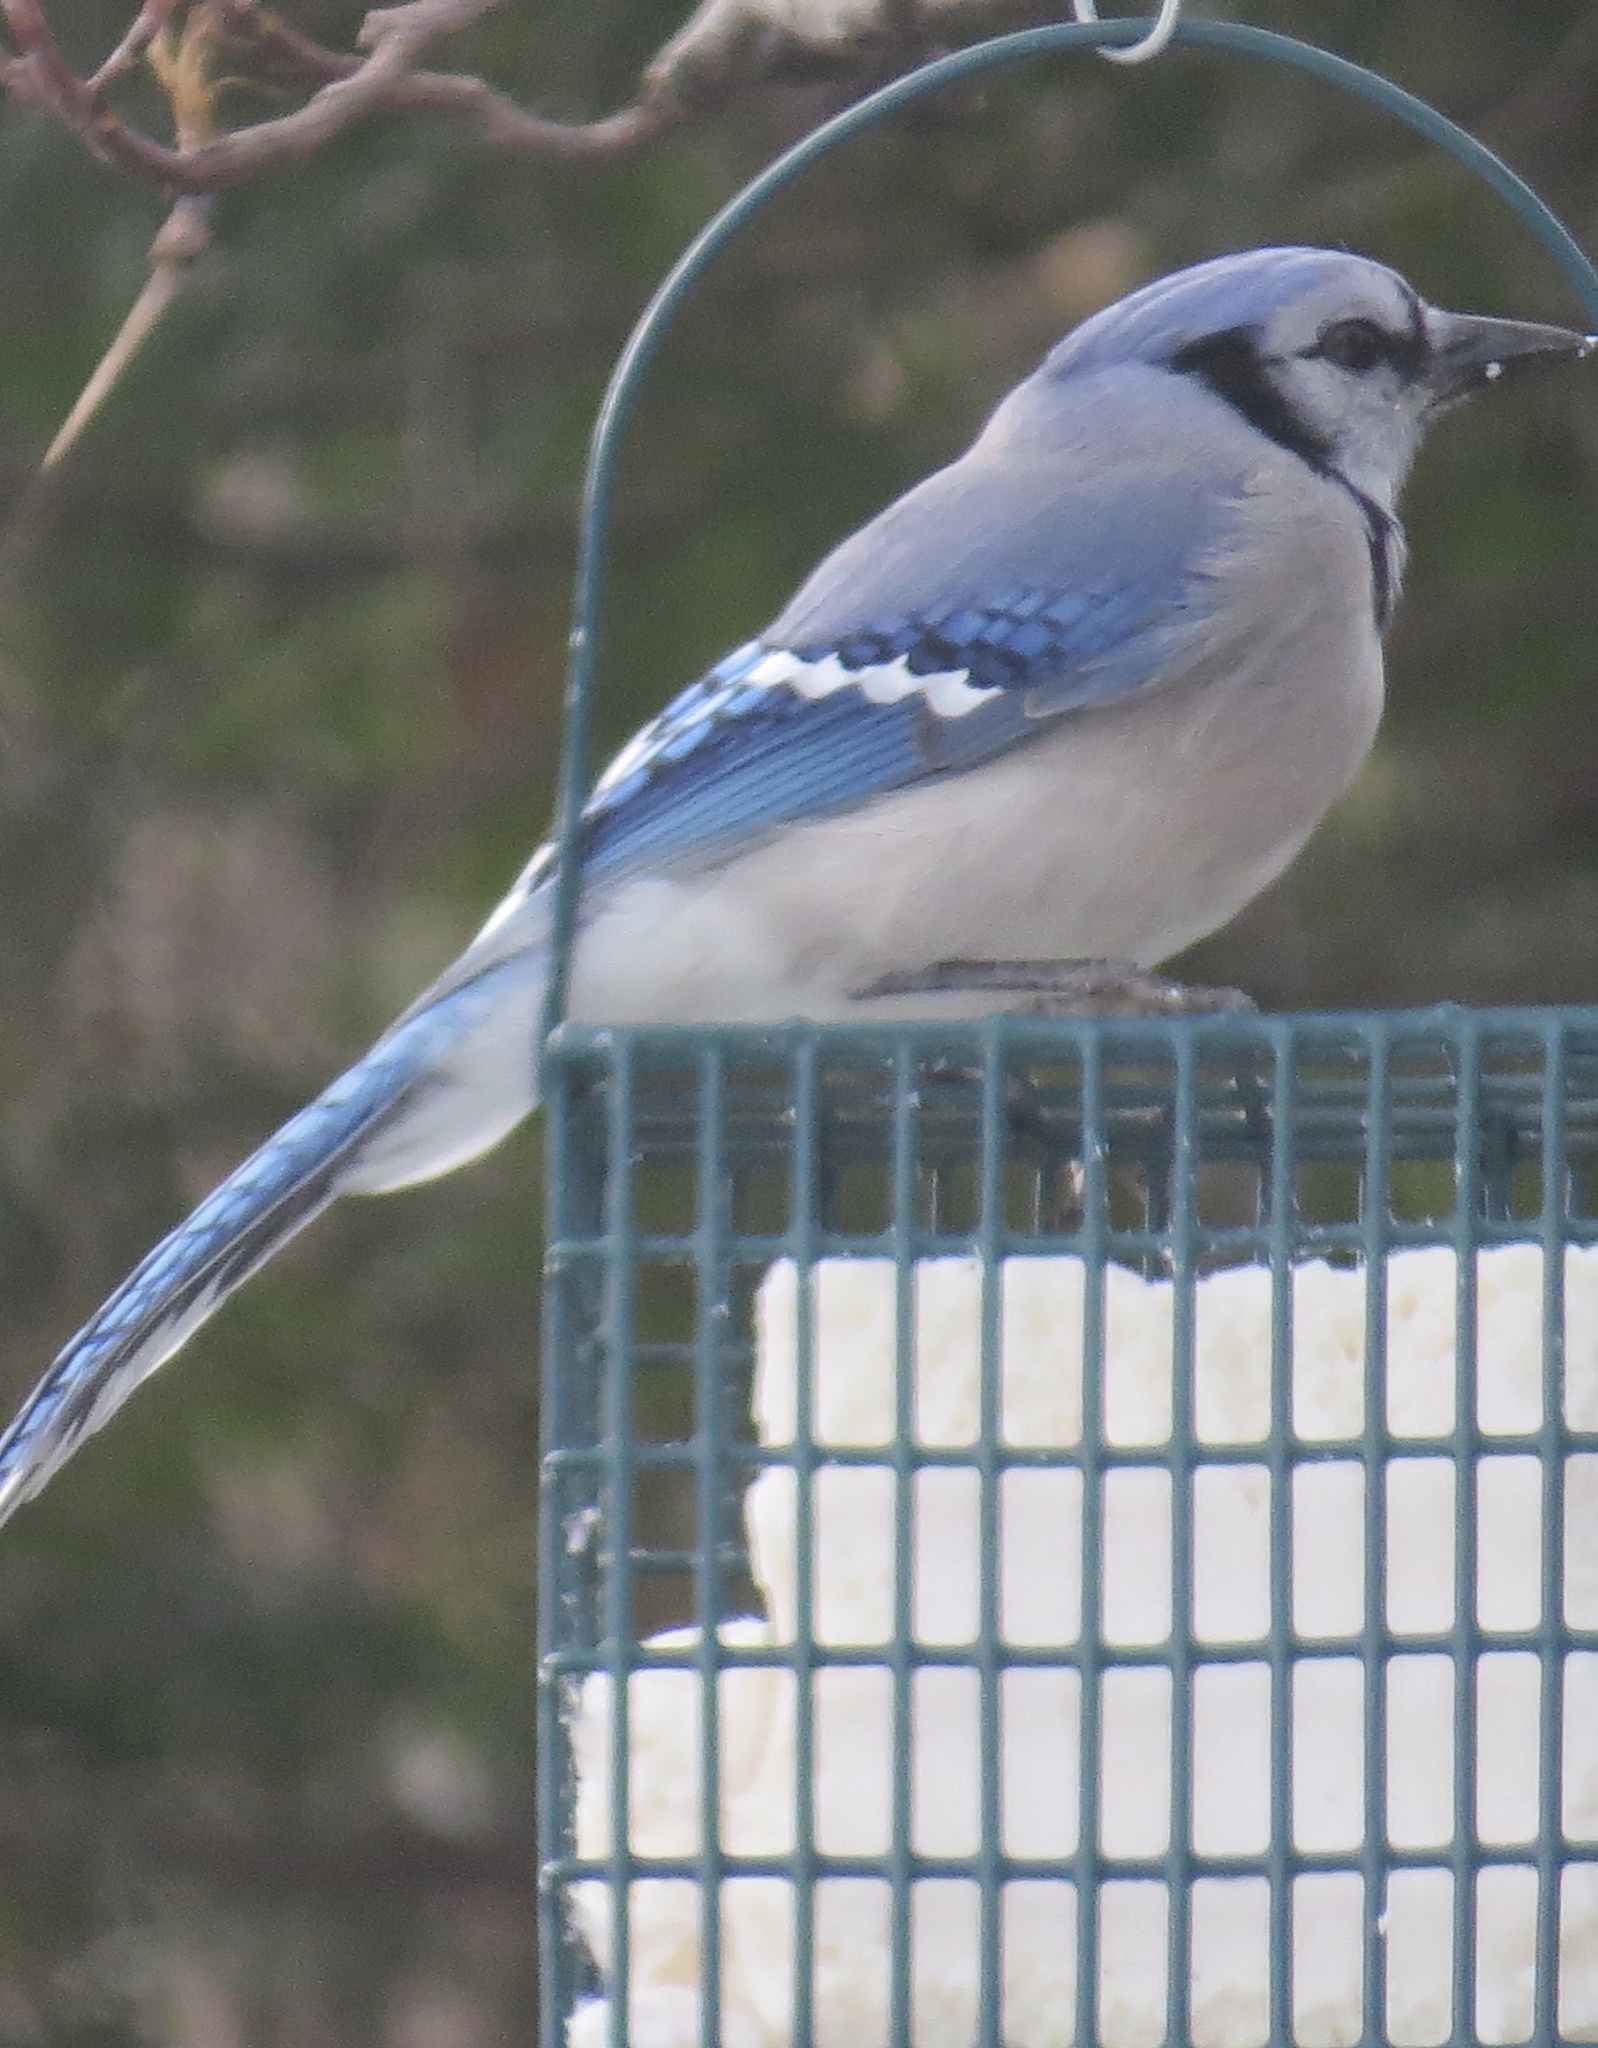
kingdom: Animalia
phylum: Chordata
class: Aves
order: Passeriformes
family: Corvidae
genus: Cyanocitta
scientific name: Cyanocitta cristata
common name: Blue jay
